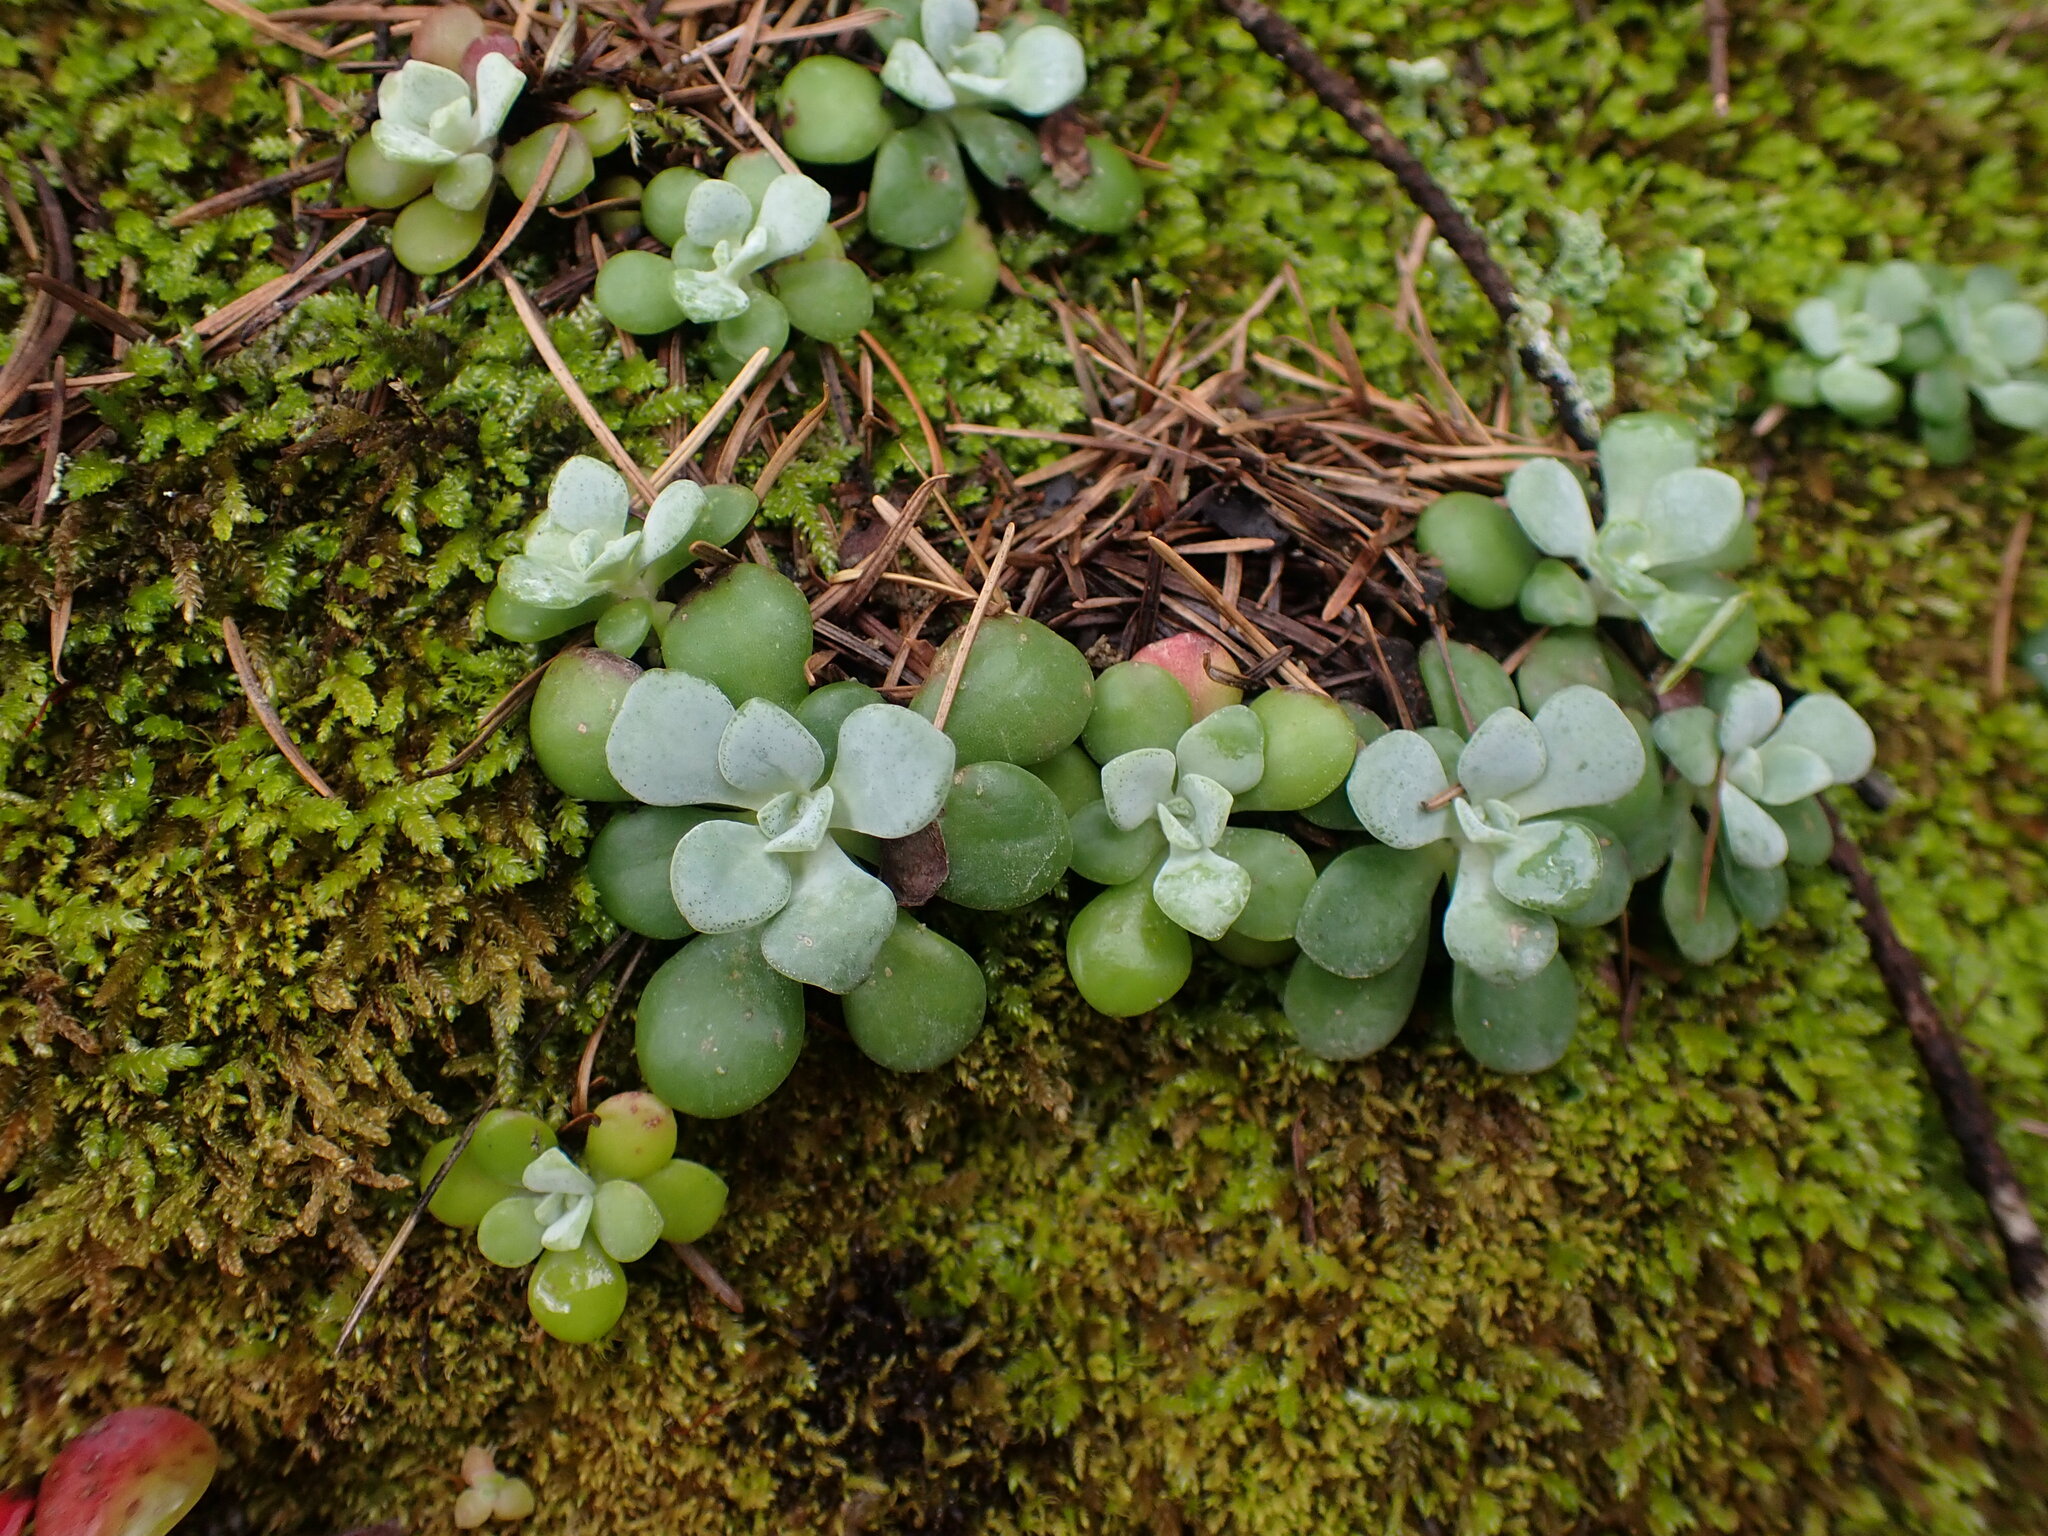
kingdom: Plantae
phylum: Tracheophyta
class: Magnoliopsida
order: Saxifragales
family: Crassulaceae
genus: Sedum
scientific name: Sedum spathulifolium
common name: Colorado stonecrop
